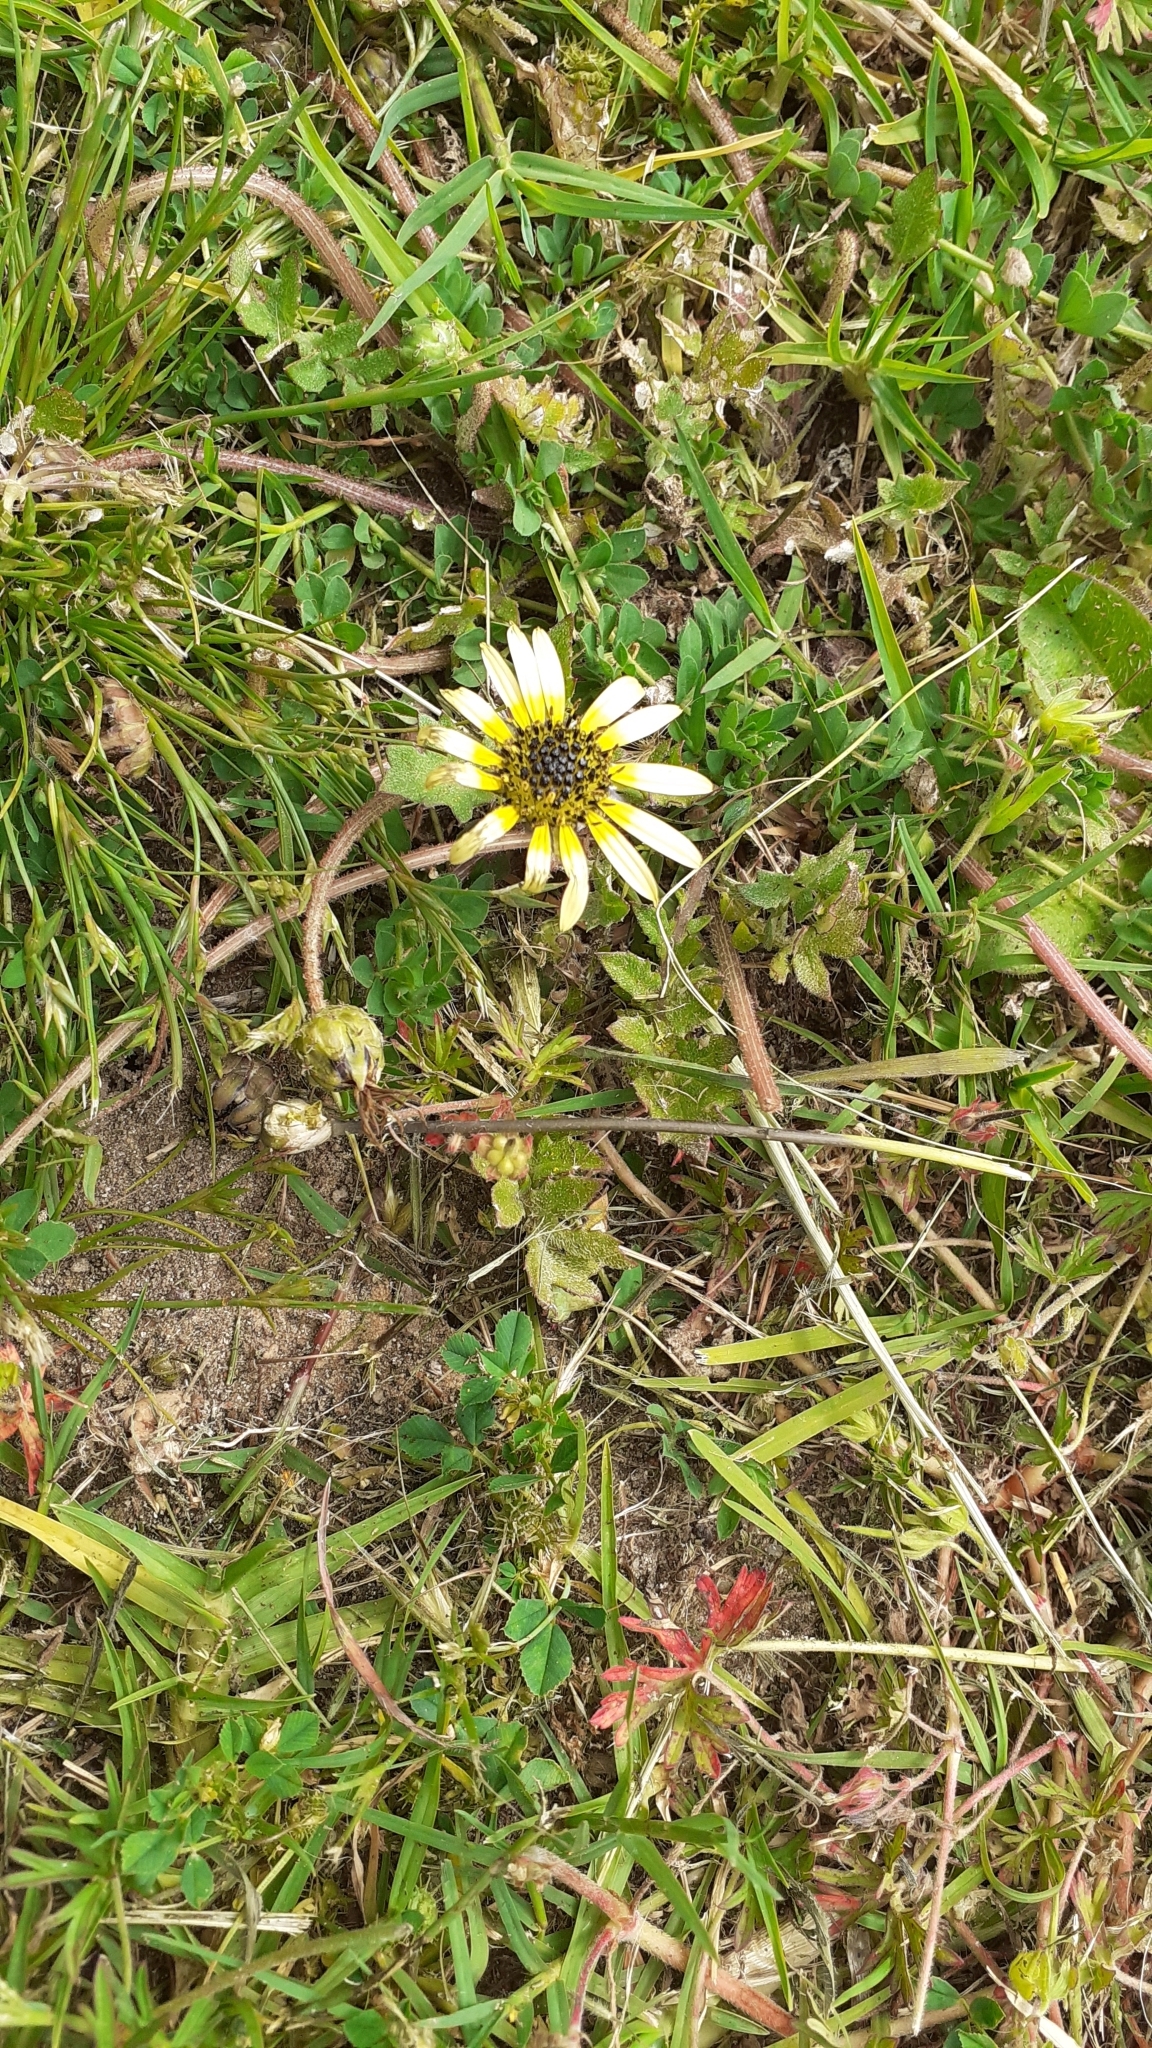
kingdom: Plantae
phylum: Tracheophyta
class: Magnoliopsida
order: Asterales
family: Asteraceae
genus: Arctotheca
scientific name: Arctotheca calendula
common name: Capeweed
